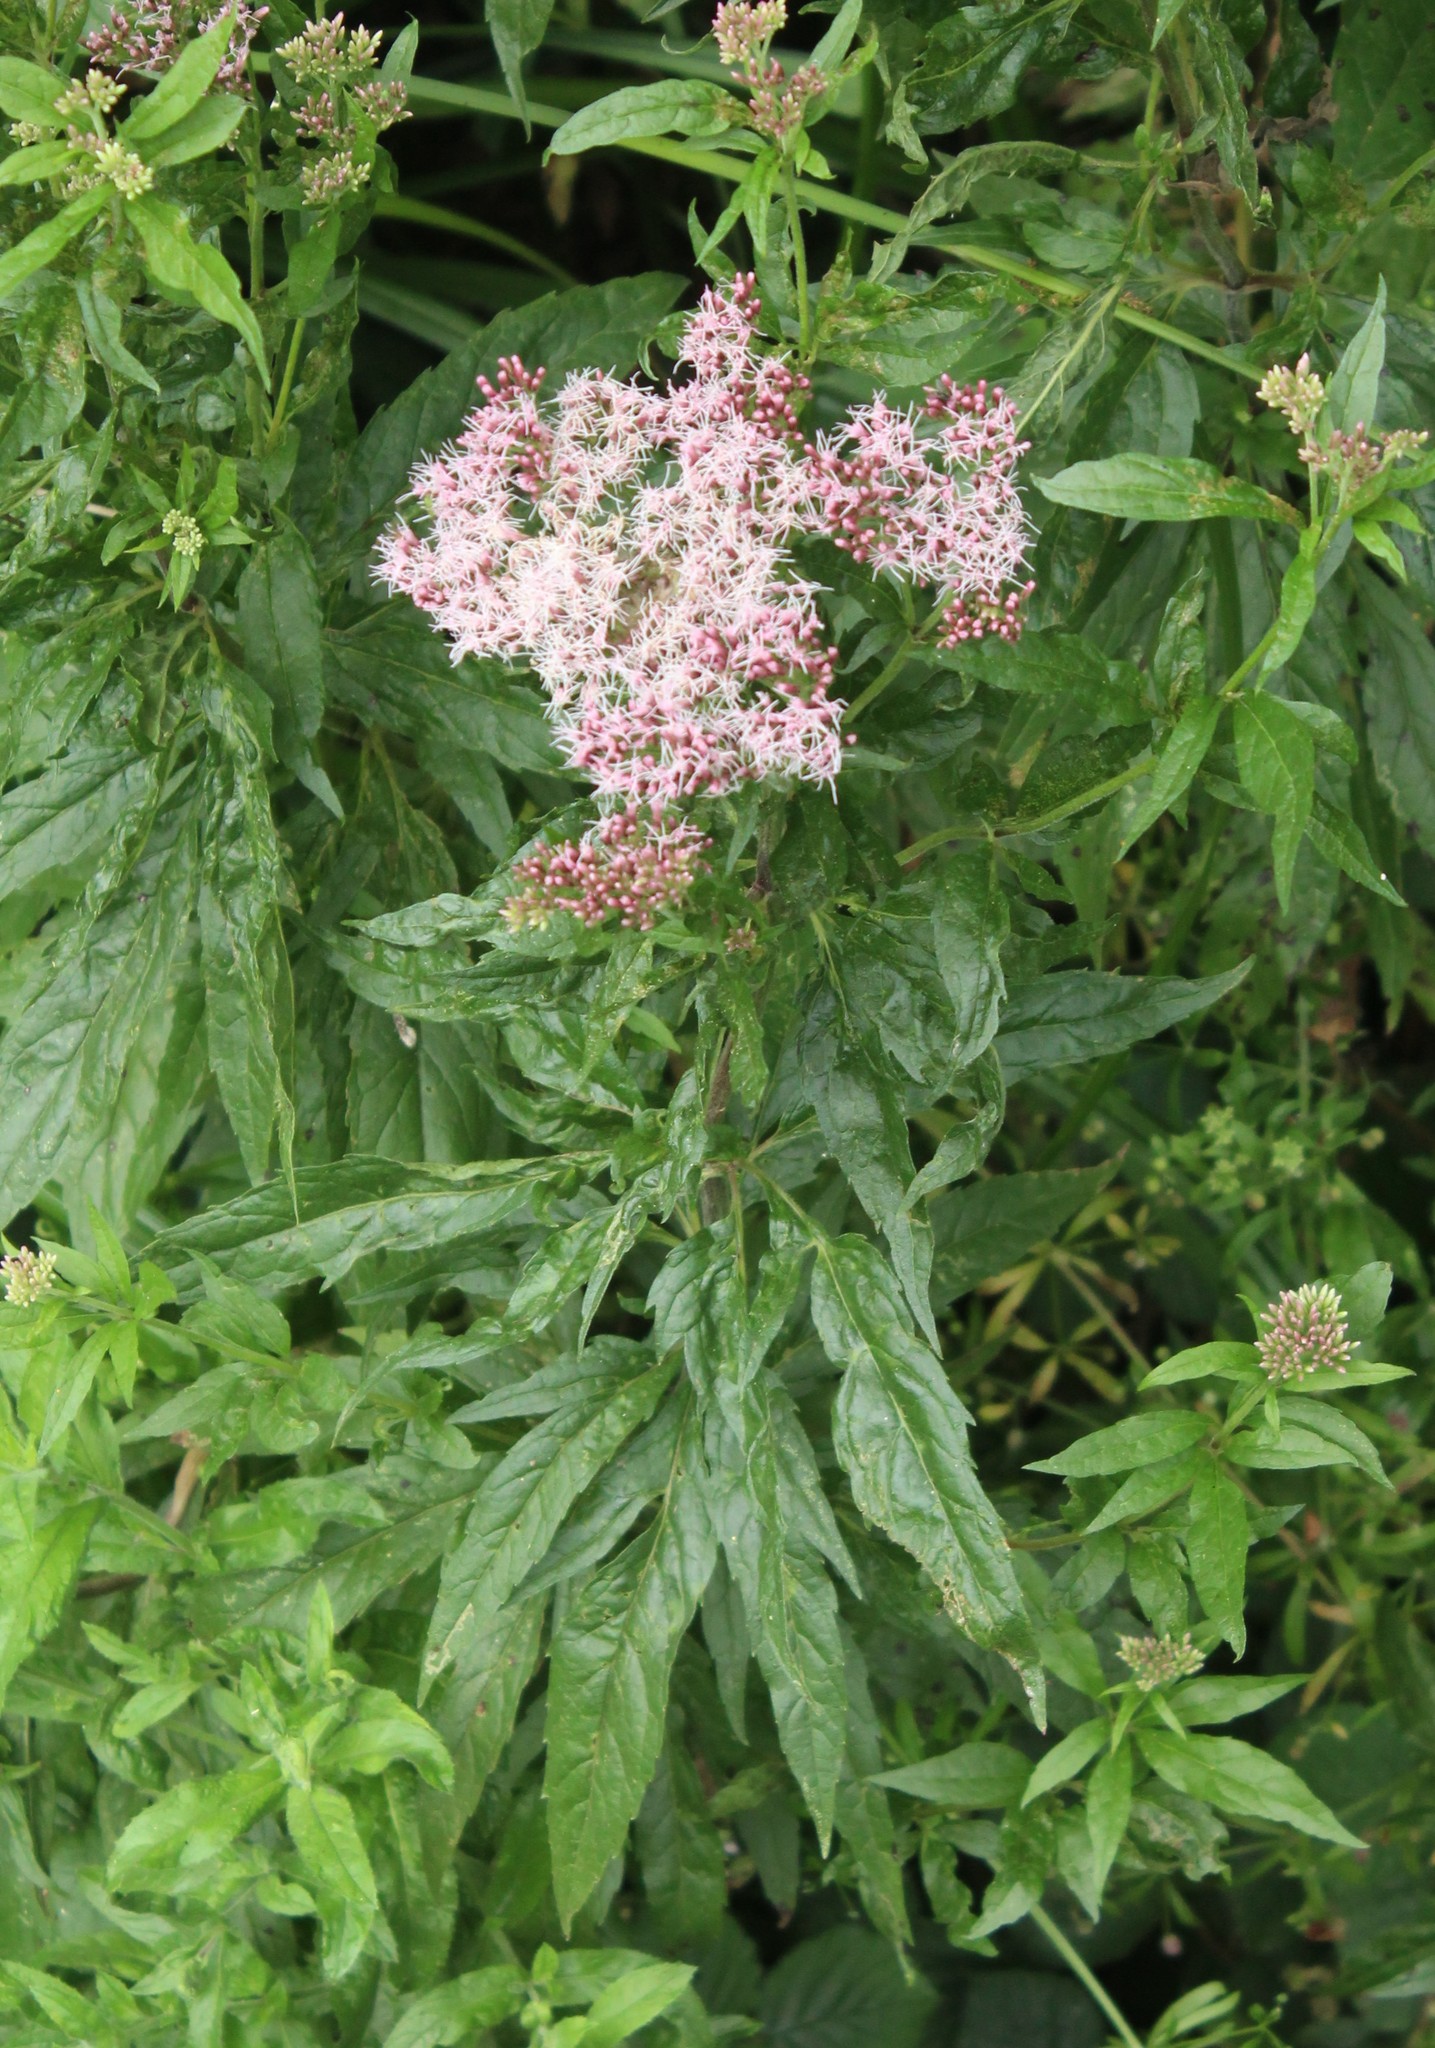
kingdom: Plantae
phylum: Tracheophyta
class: Magnoliopsida
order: Asterales
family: Asteraceae
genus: Eupatorium
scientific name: Eupatorium cannabinum
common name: Hemp-agrimony
